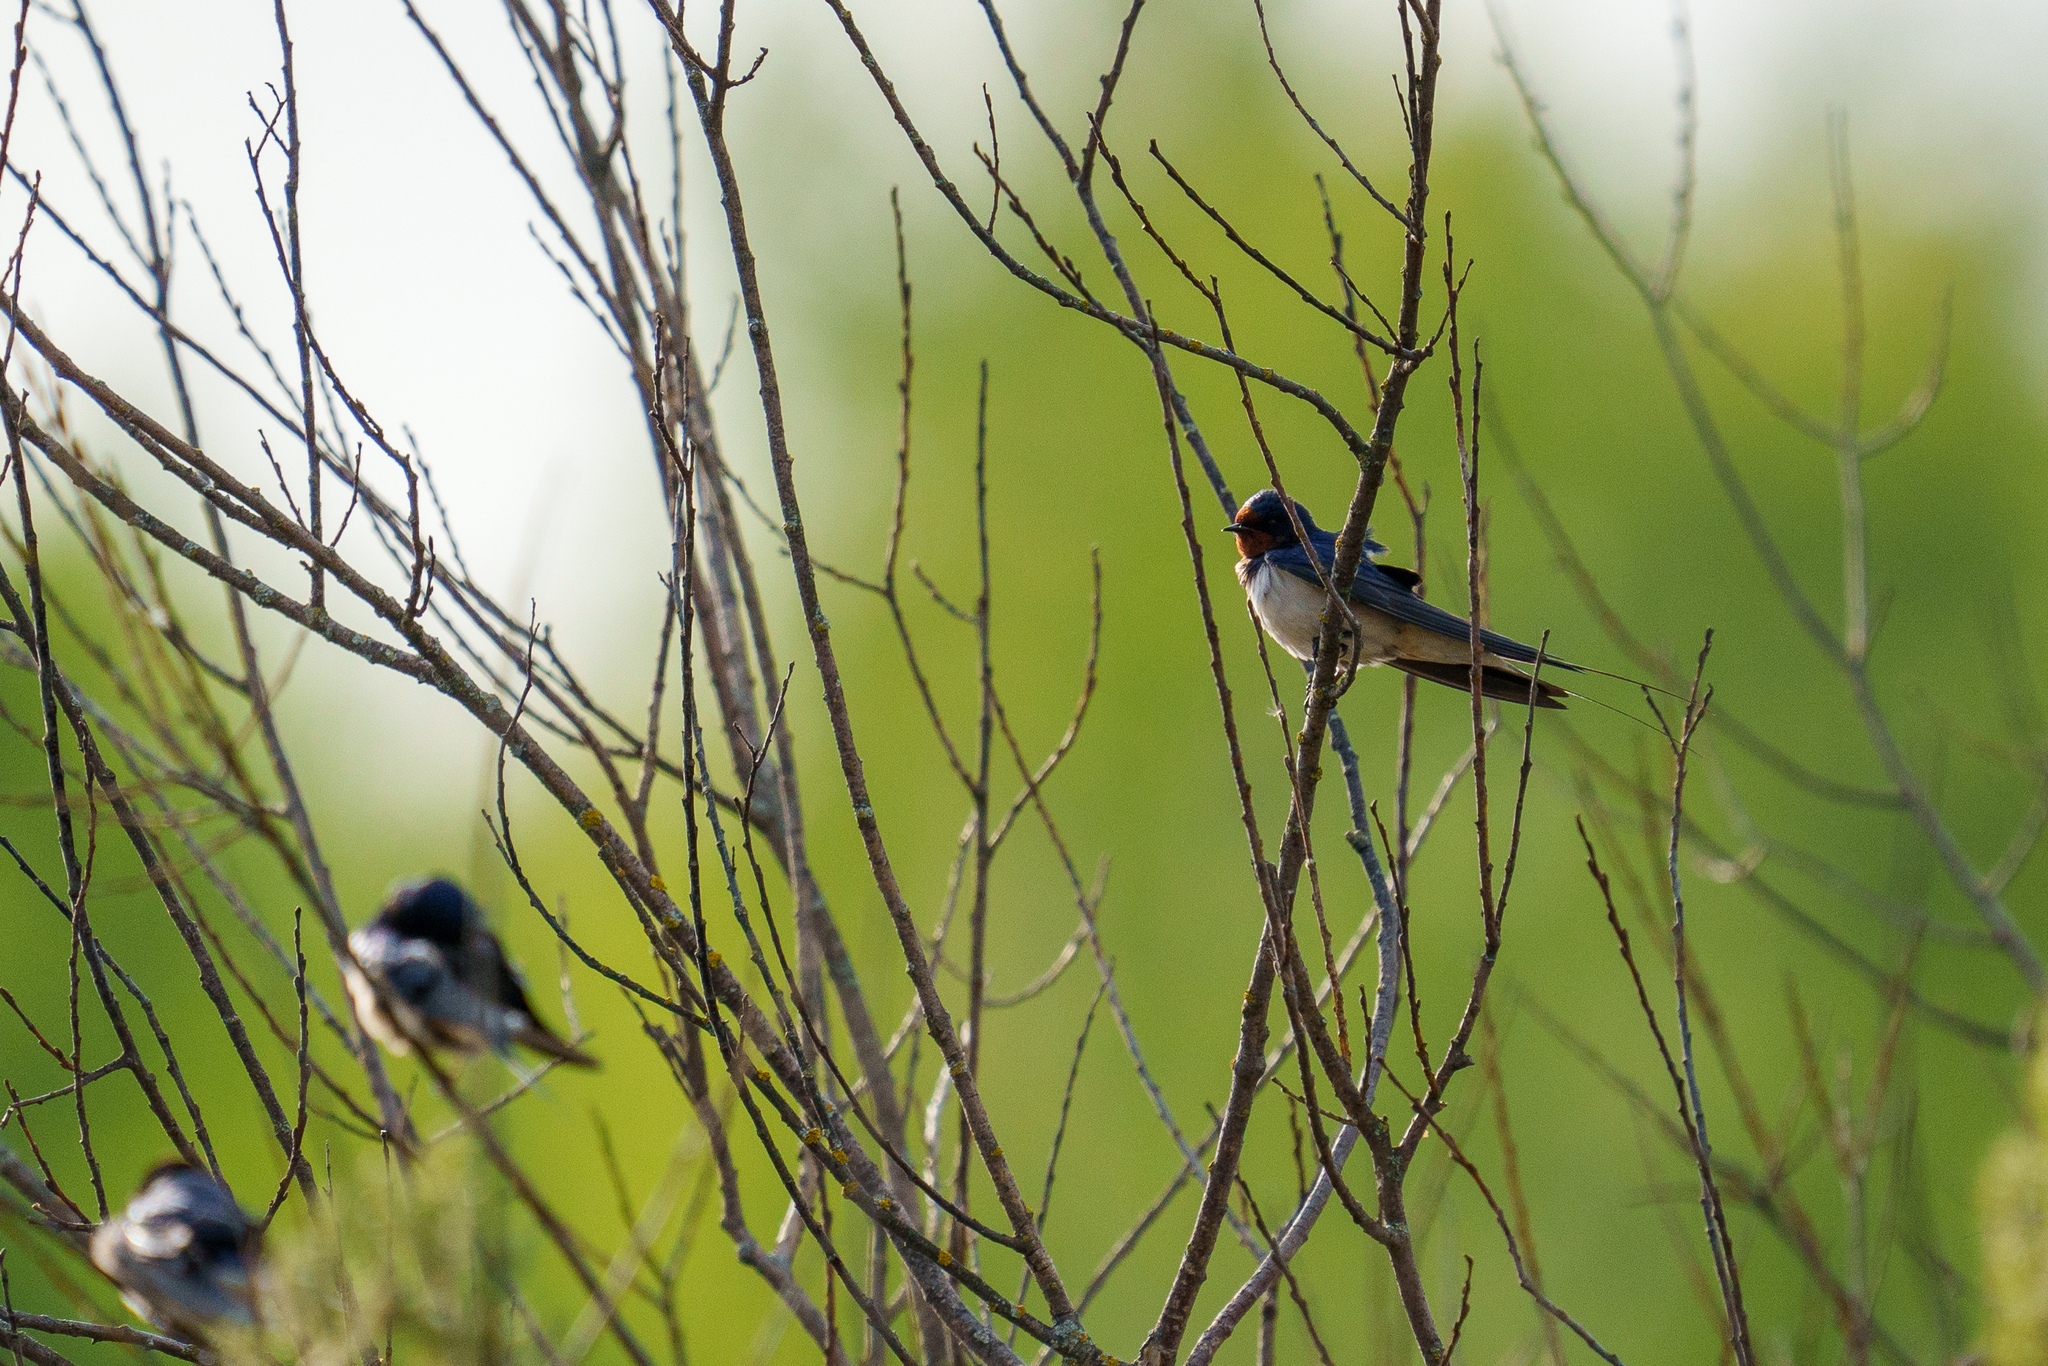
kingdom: Animalia
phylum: Chordata
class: Aves
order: Passeriformes
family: Hirundinidae
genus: Hirundo
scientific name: Hirundo rustica
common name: Barn swallow
